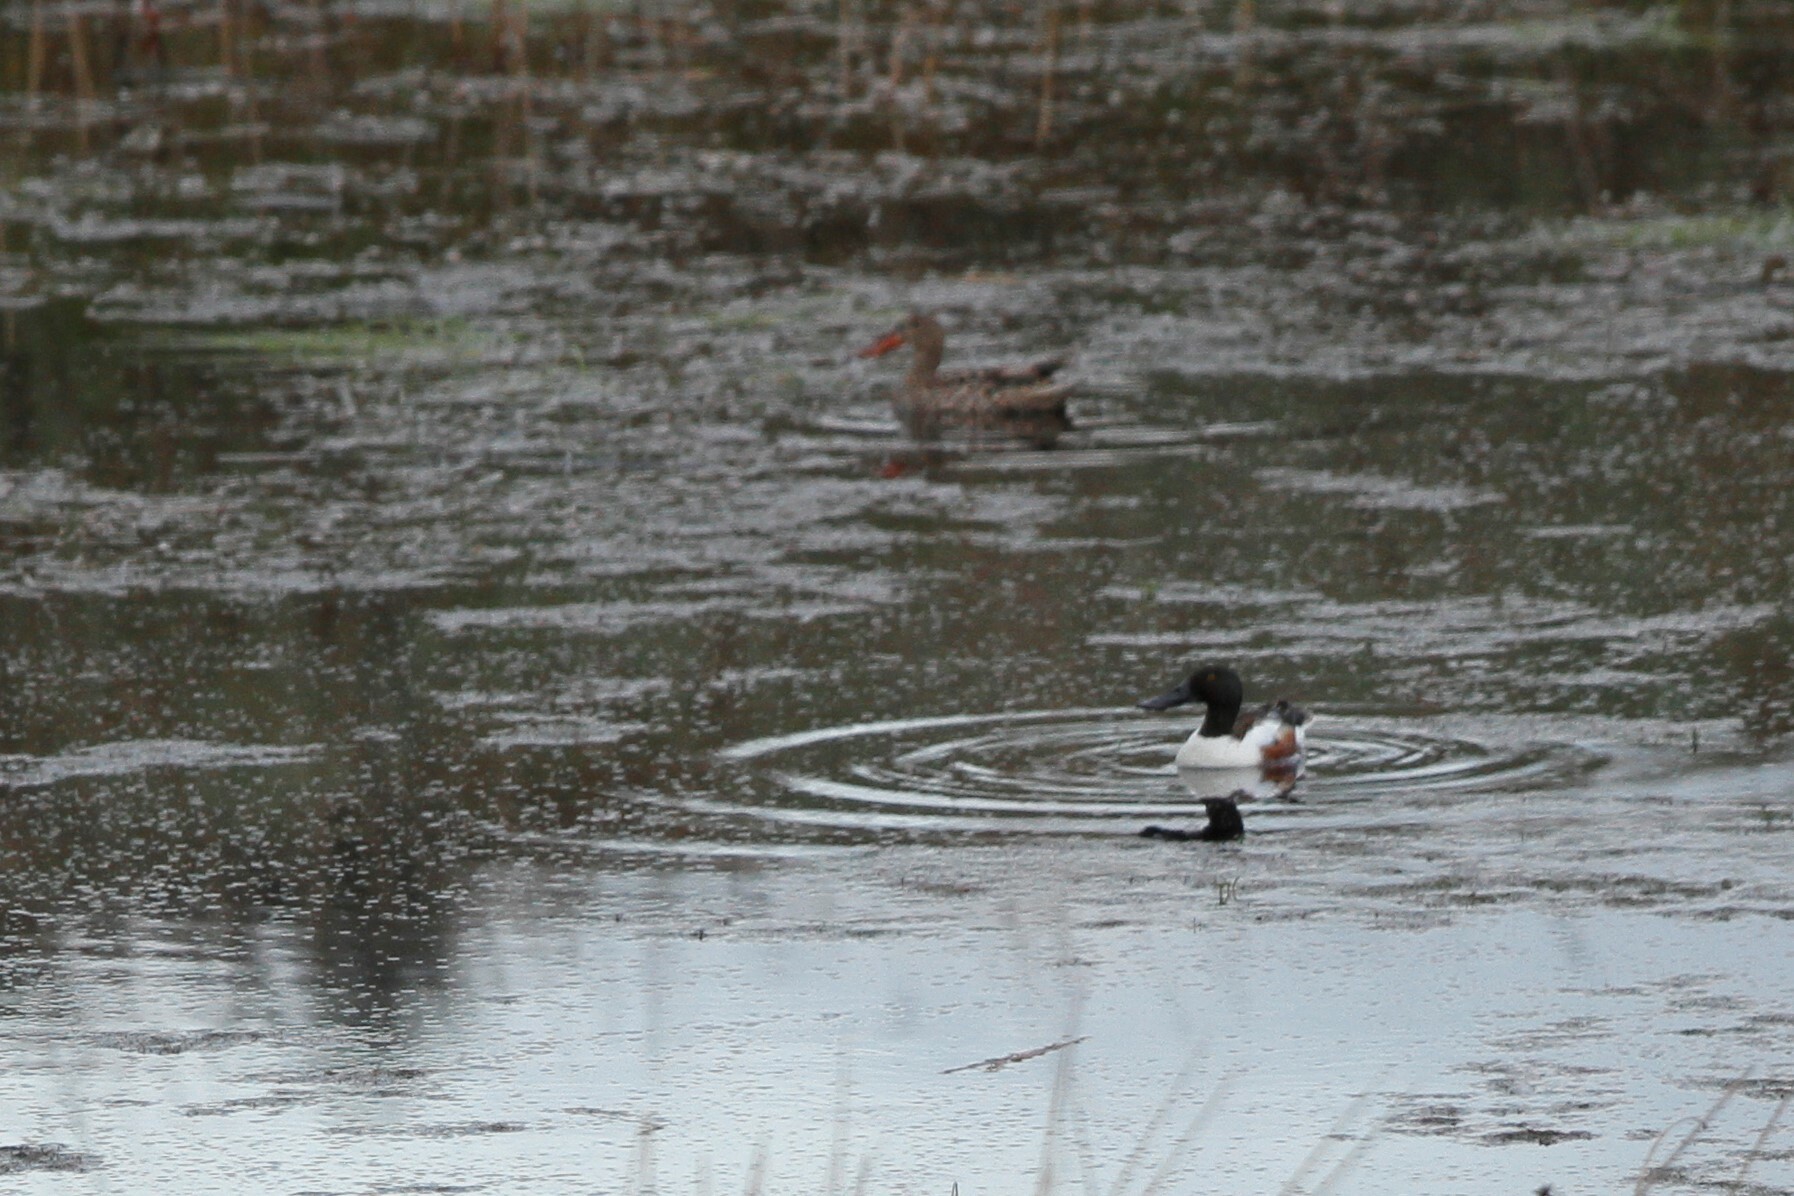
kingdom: Animalia
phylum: Chordata
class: Aves
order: Anseriformes
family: Anatidae
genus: Spatula
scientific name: Spatula clypeata
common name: Northern shoveler
